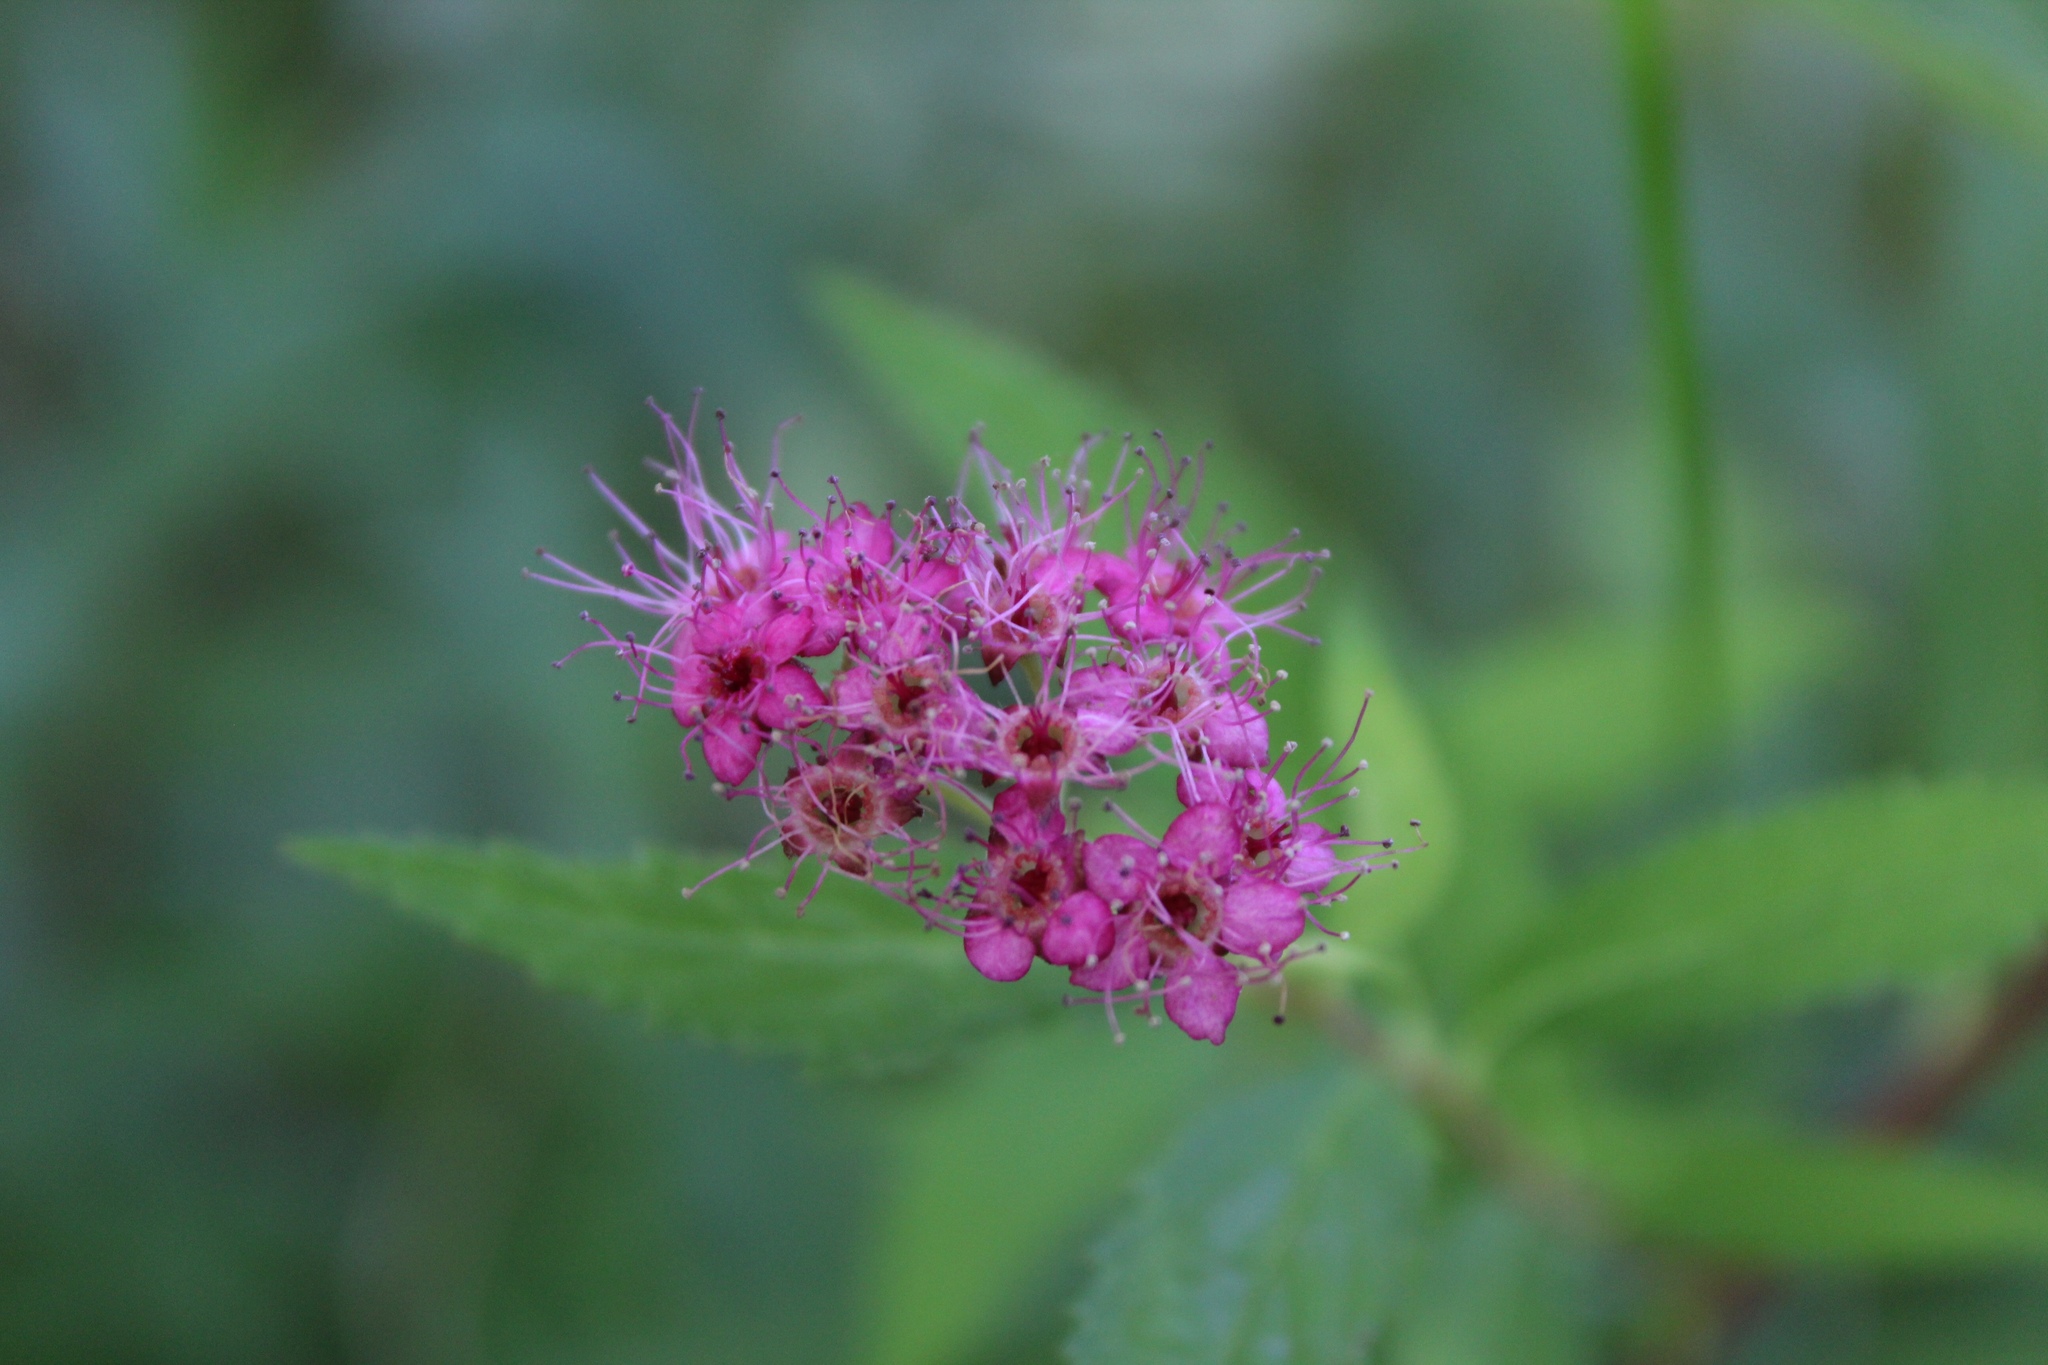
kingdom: Plantae
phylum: Tracheophyta
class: Magnoliopsida
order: Rosales
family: Rosaceae
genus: Spiraea
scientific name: Spiraea japonica
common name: Japanese spiraea
